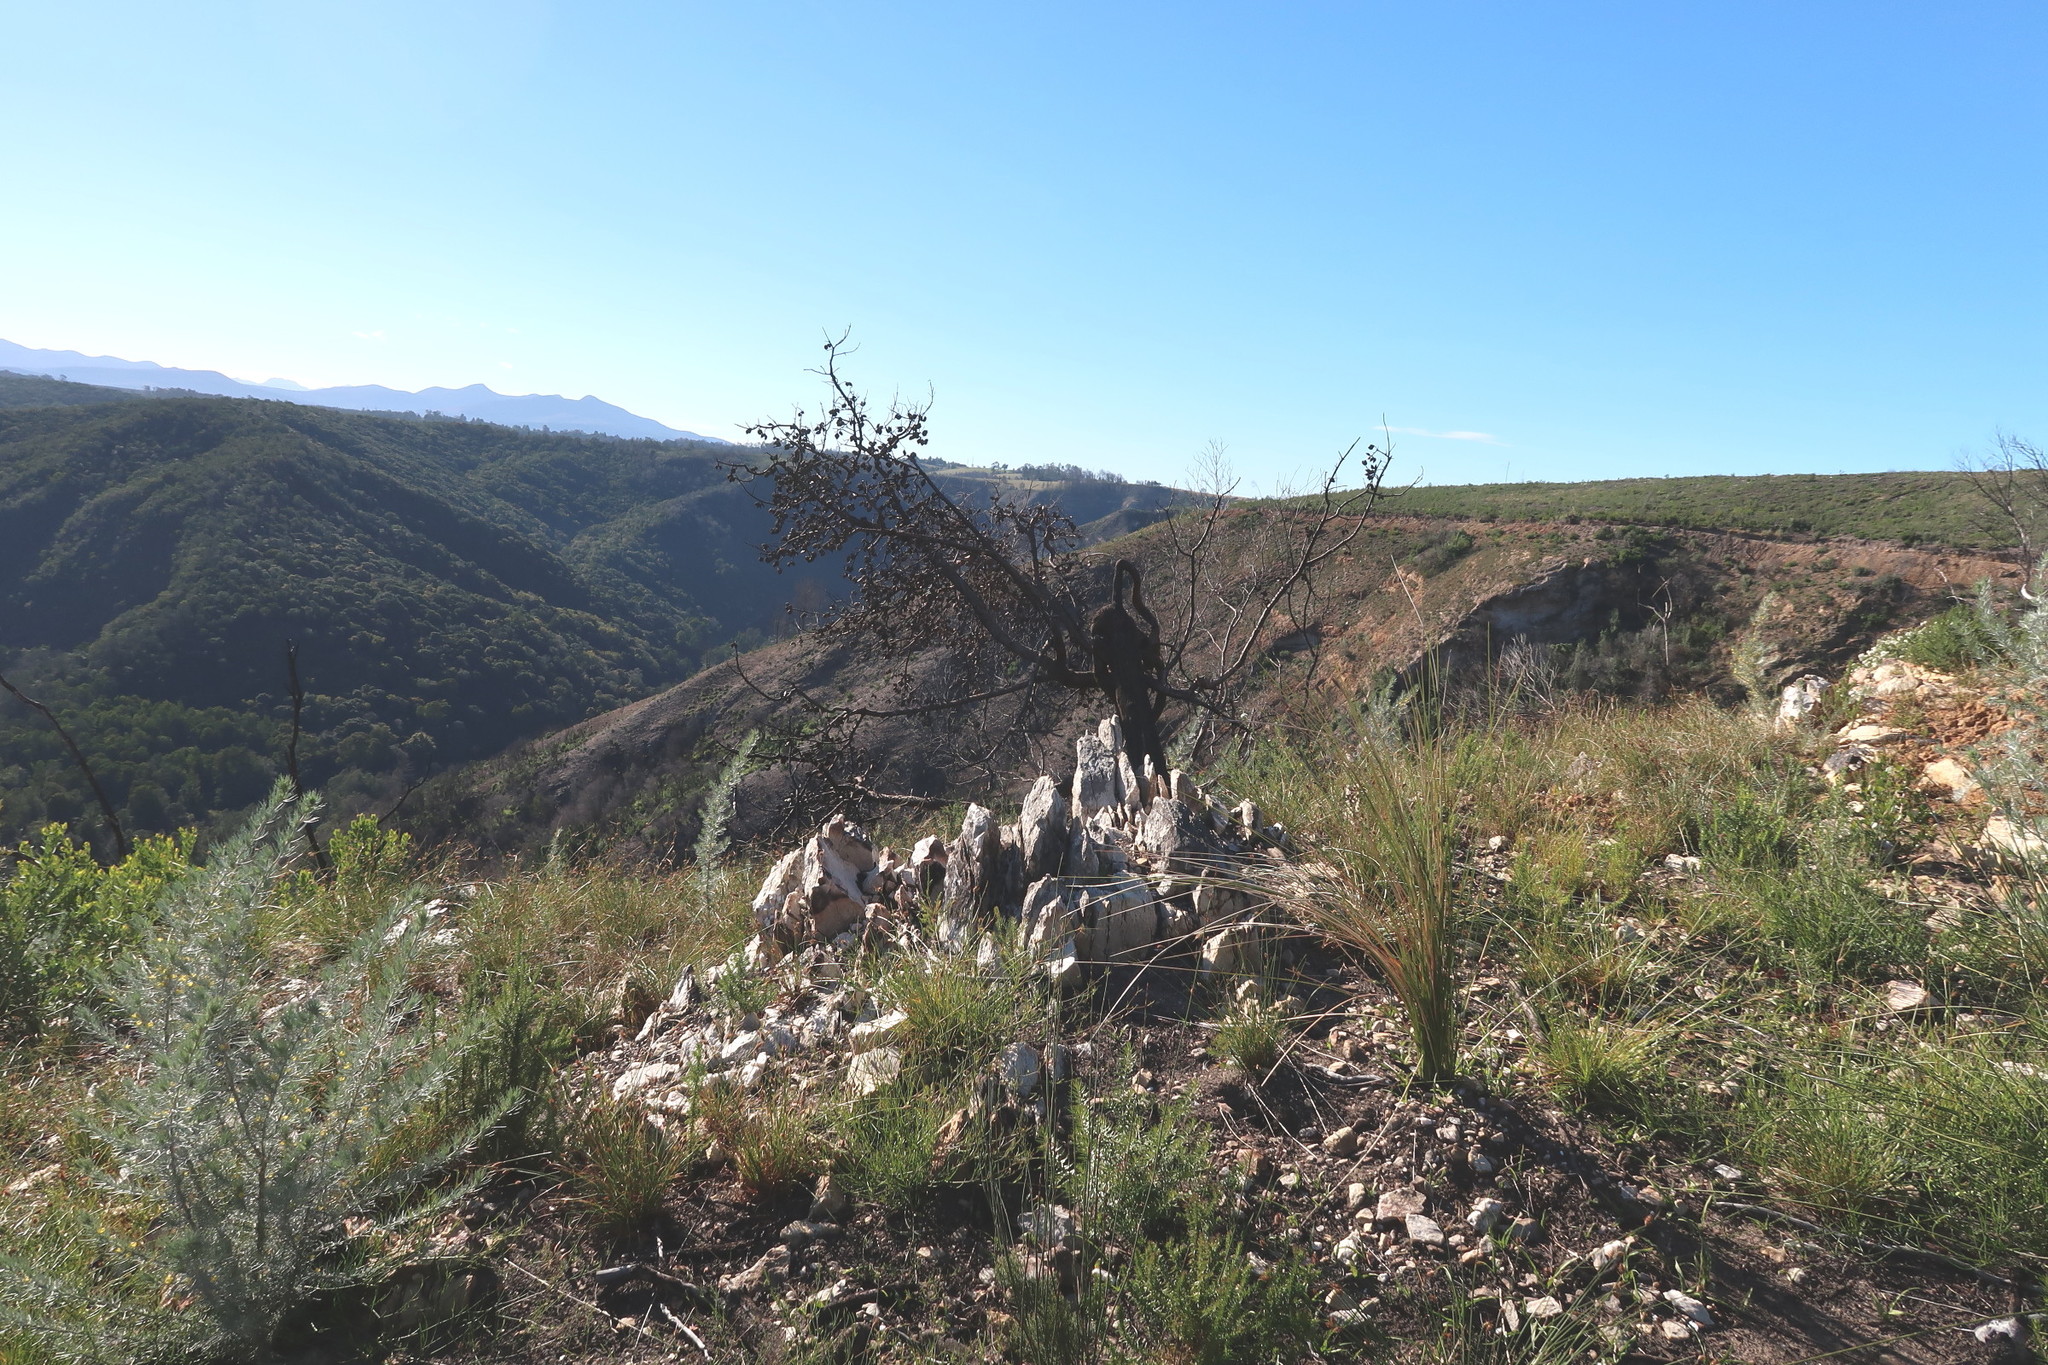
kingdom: Plantae
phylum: Tracheophyta
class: Magnoliopsida
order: Proteales
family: Proteaceae
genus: Hakea
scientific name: Hakea sericea
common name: Needle bush
